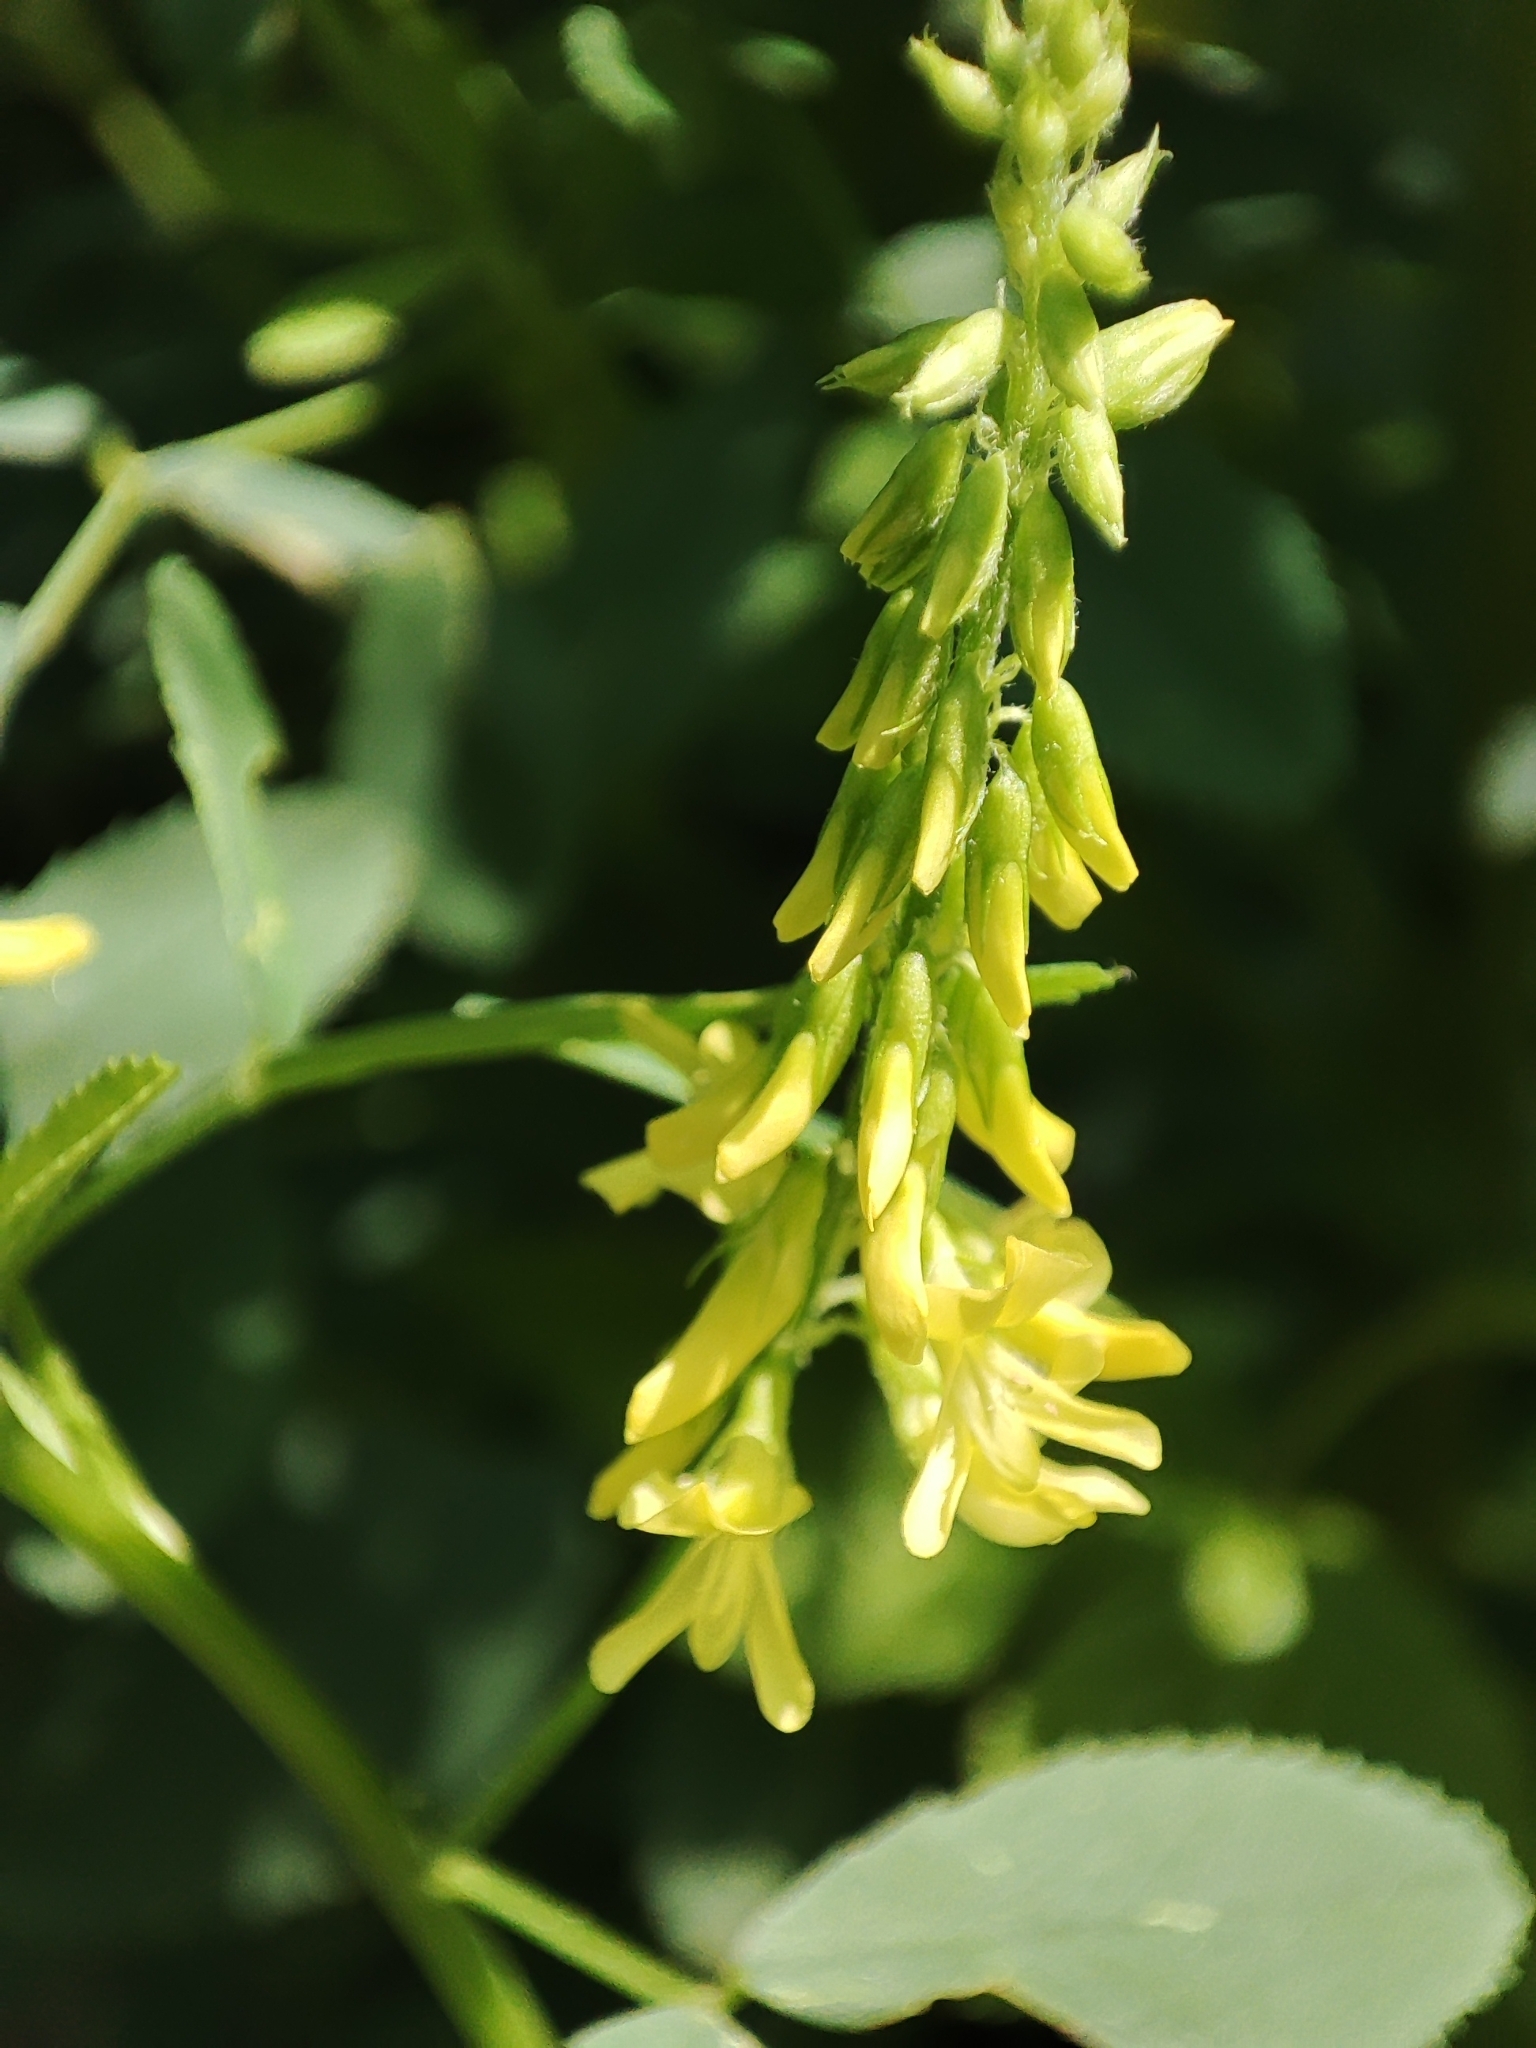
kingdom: Plantae
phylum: Tracheophyta
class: Magnoliopsida
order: Fabales
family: Fabaceae
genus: Melilotus
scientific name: Melilotus officinalis
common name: Sweetclover
